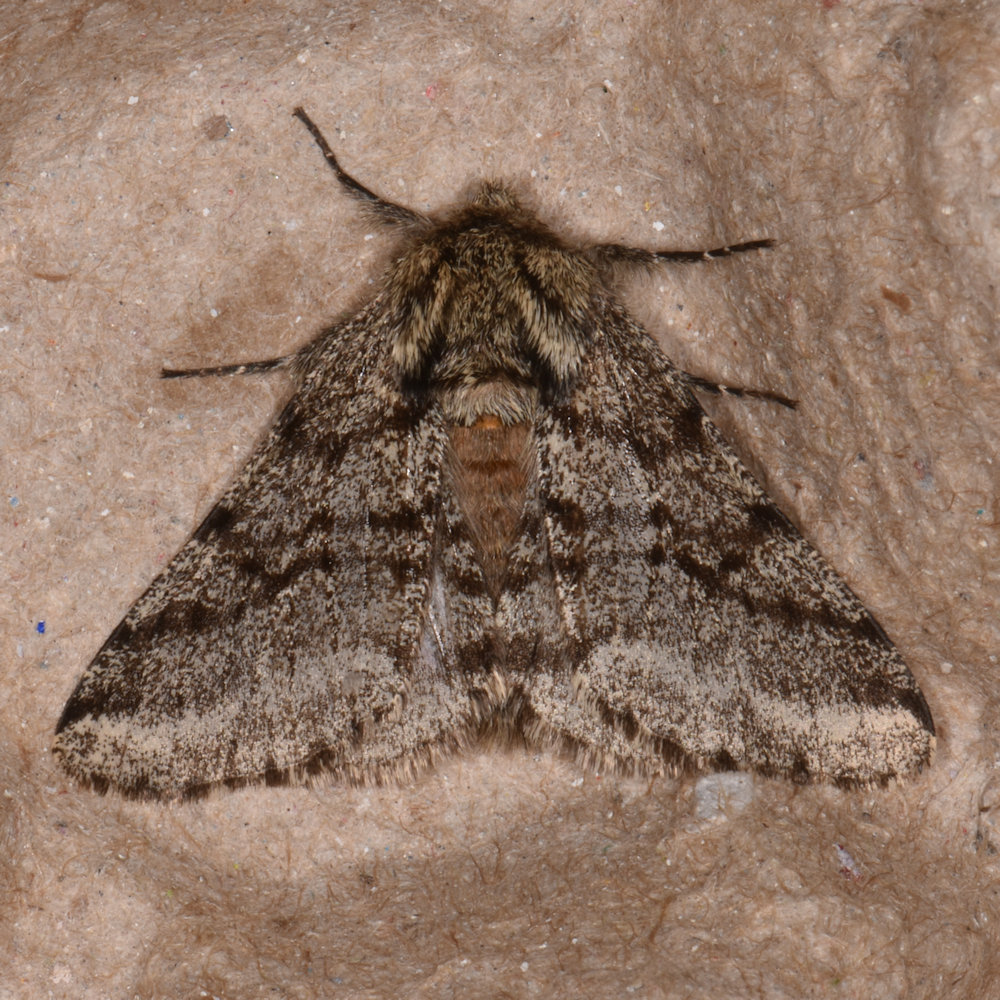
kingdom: Animalia
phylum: Arthropoda
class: Insecta
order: Lepidoptera
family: Geometridae
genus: Lycia
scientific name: Lycia ursaria
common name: Stout spanworm
